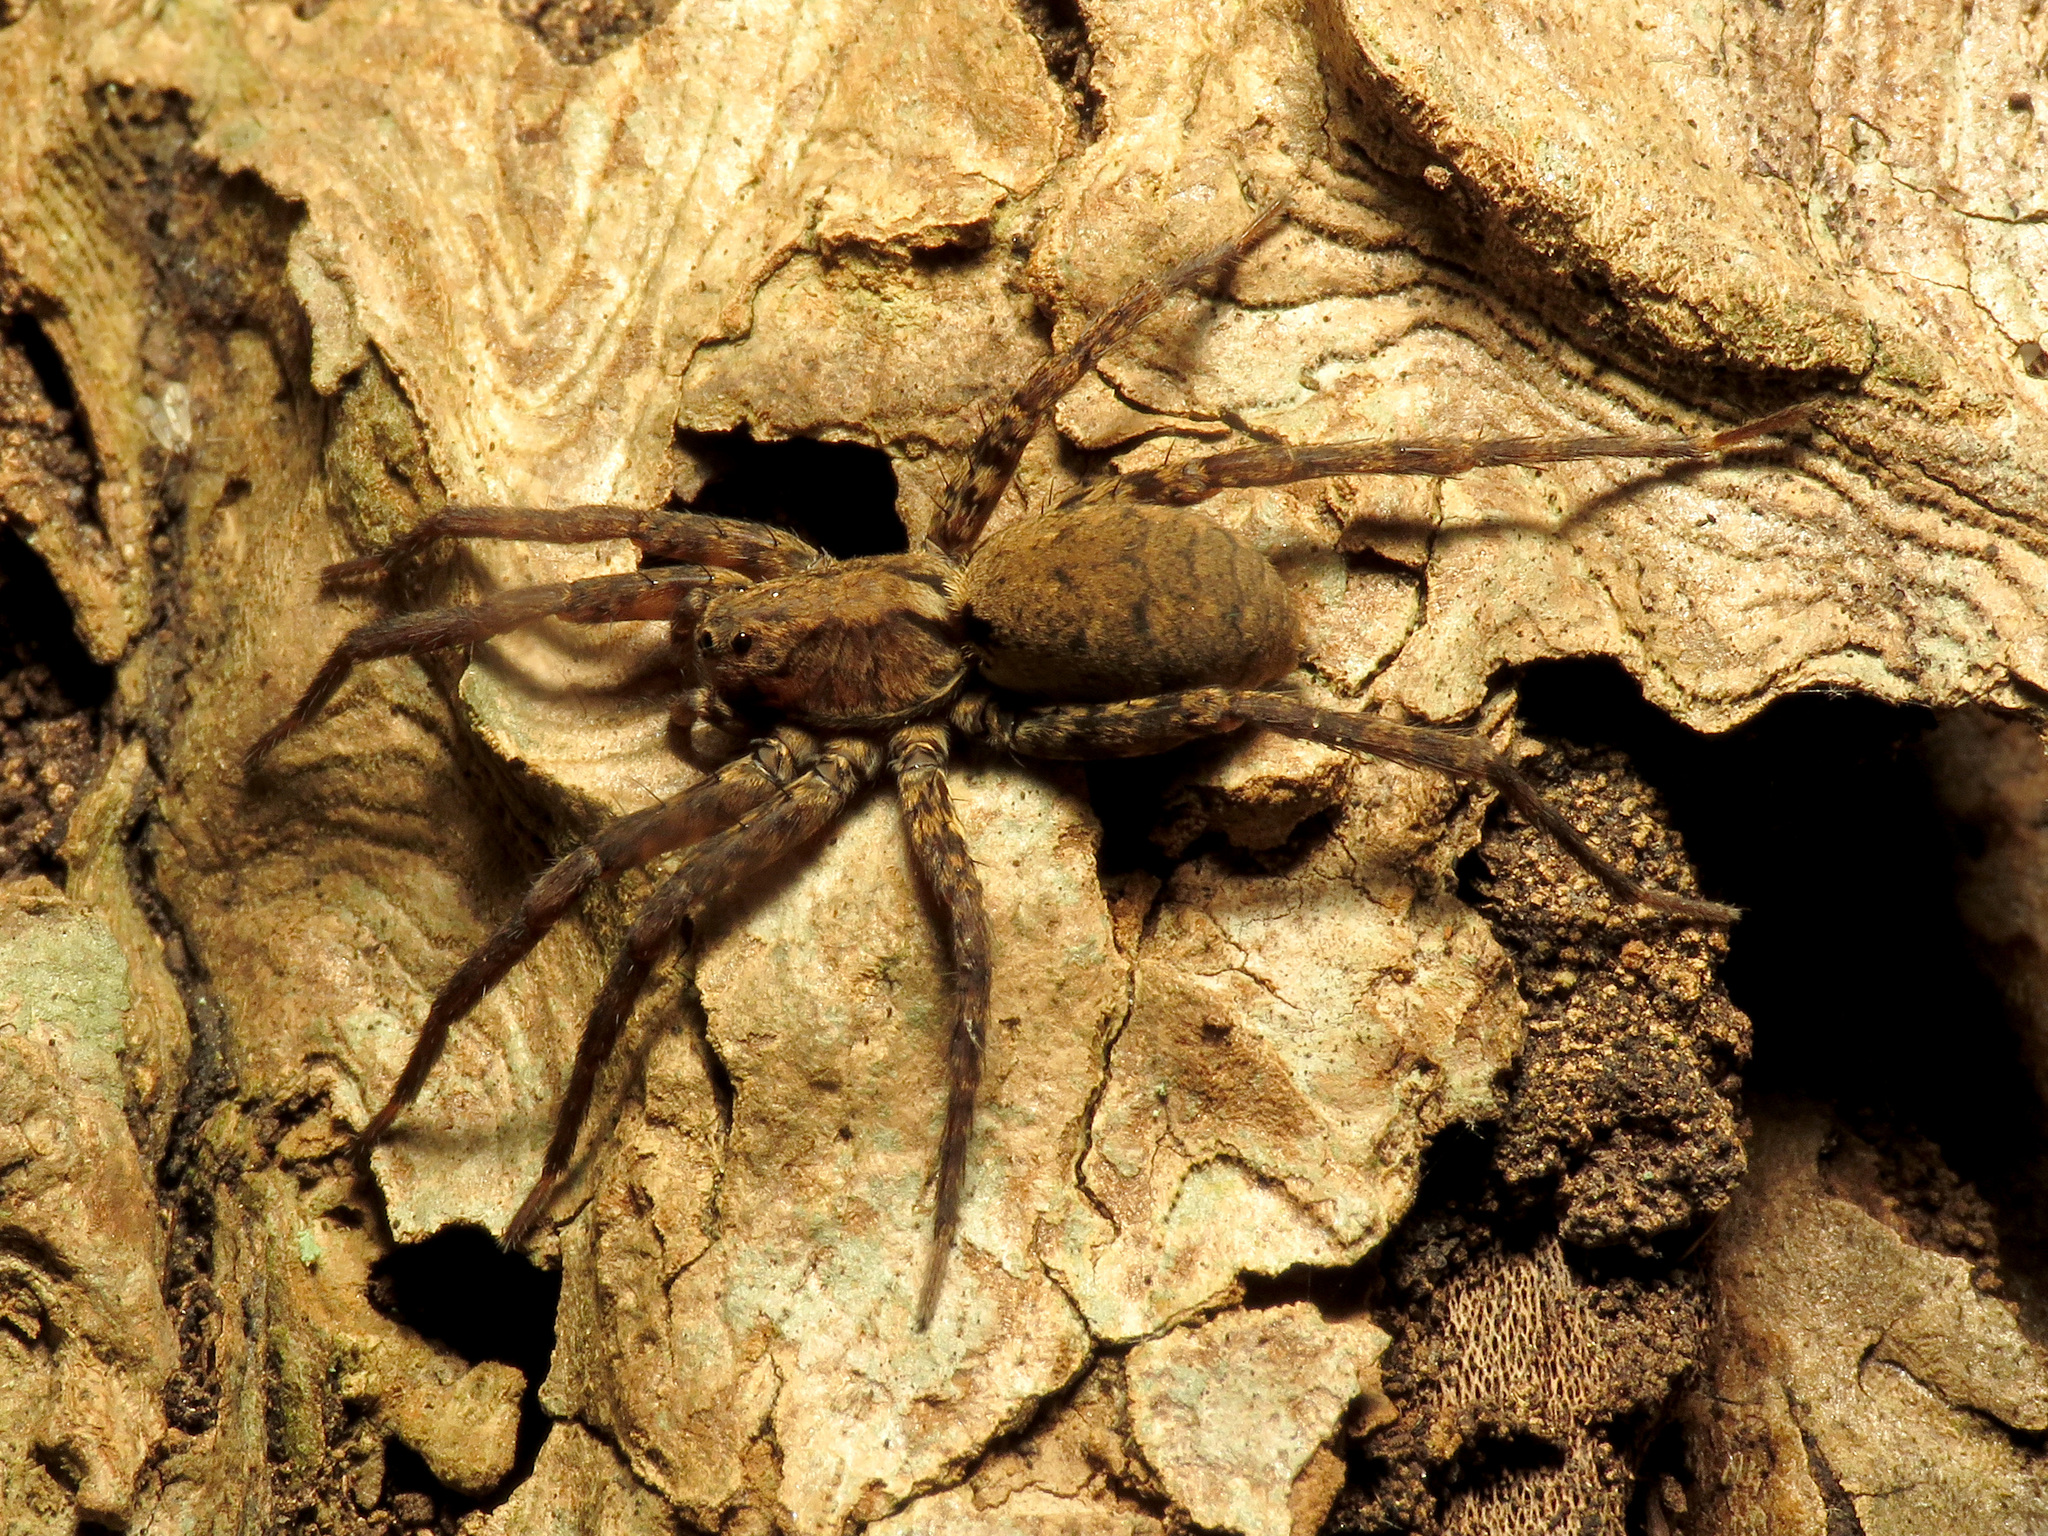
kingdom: Animalia
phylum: Arthropoda
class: Arachnida
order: Araneae
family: Lycosidae
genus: Gladicosa
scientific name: Gladicosa gulosa
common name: Drumming sword wolf spider
